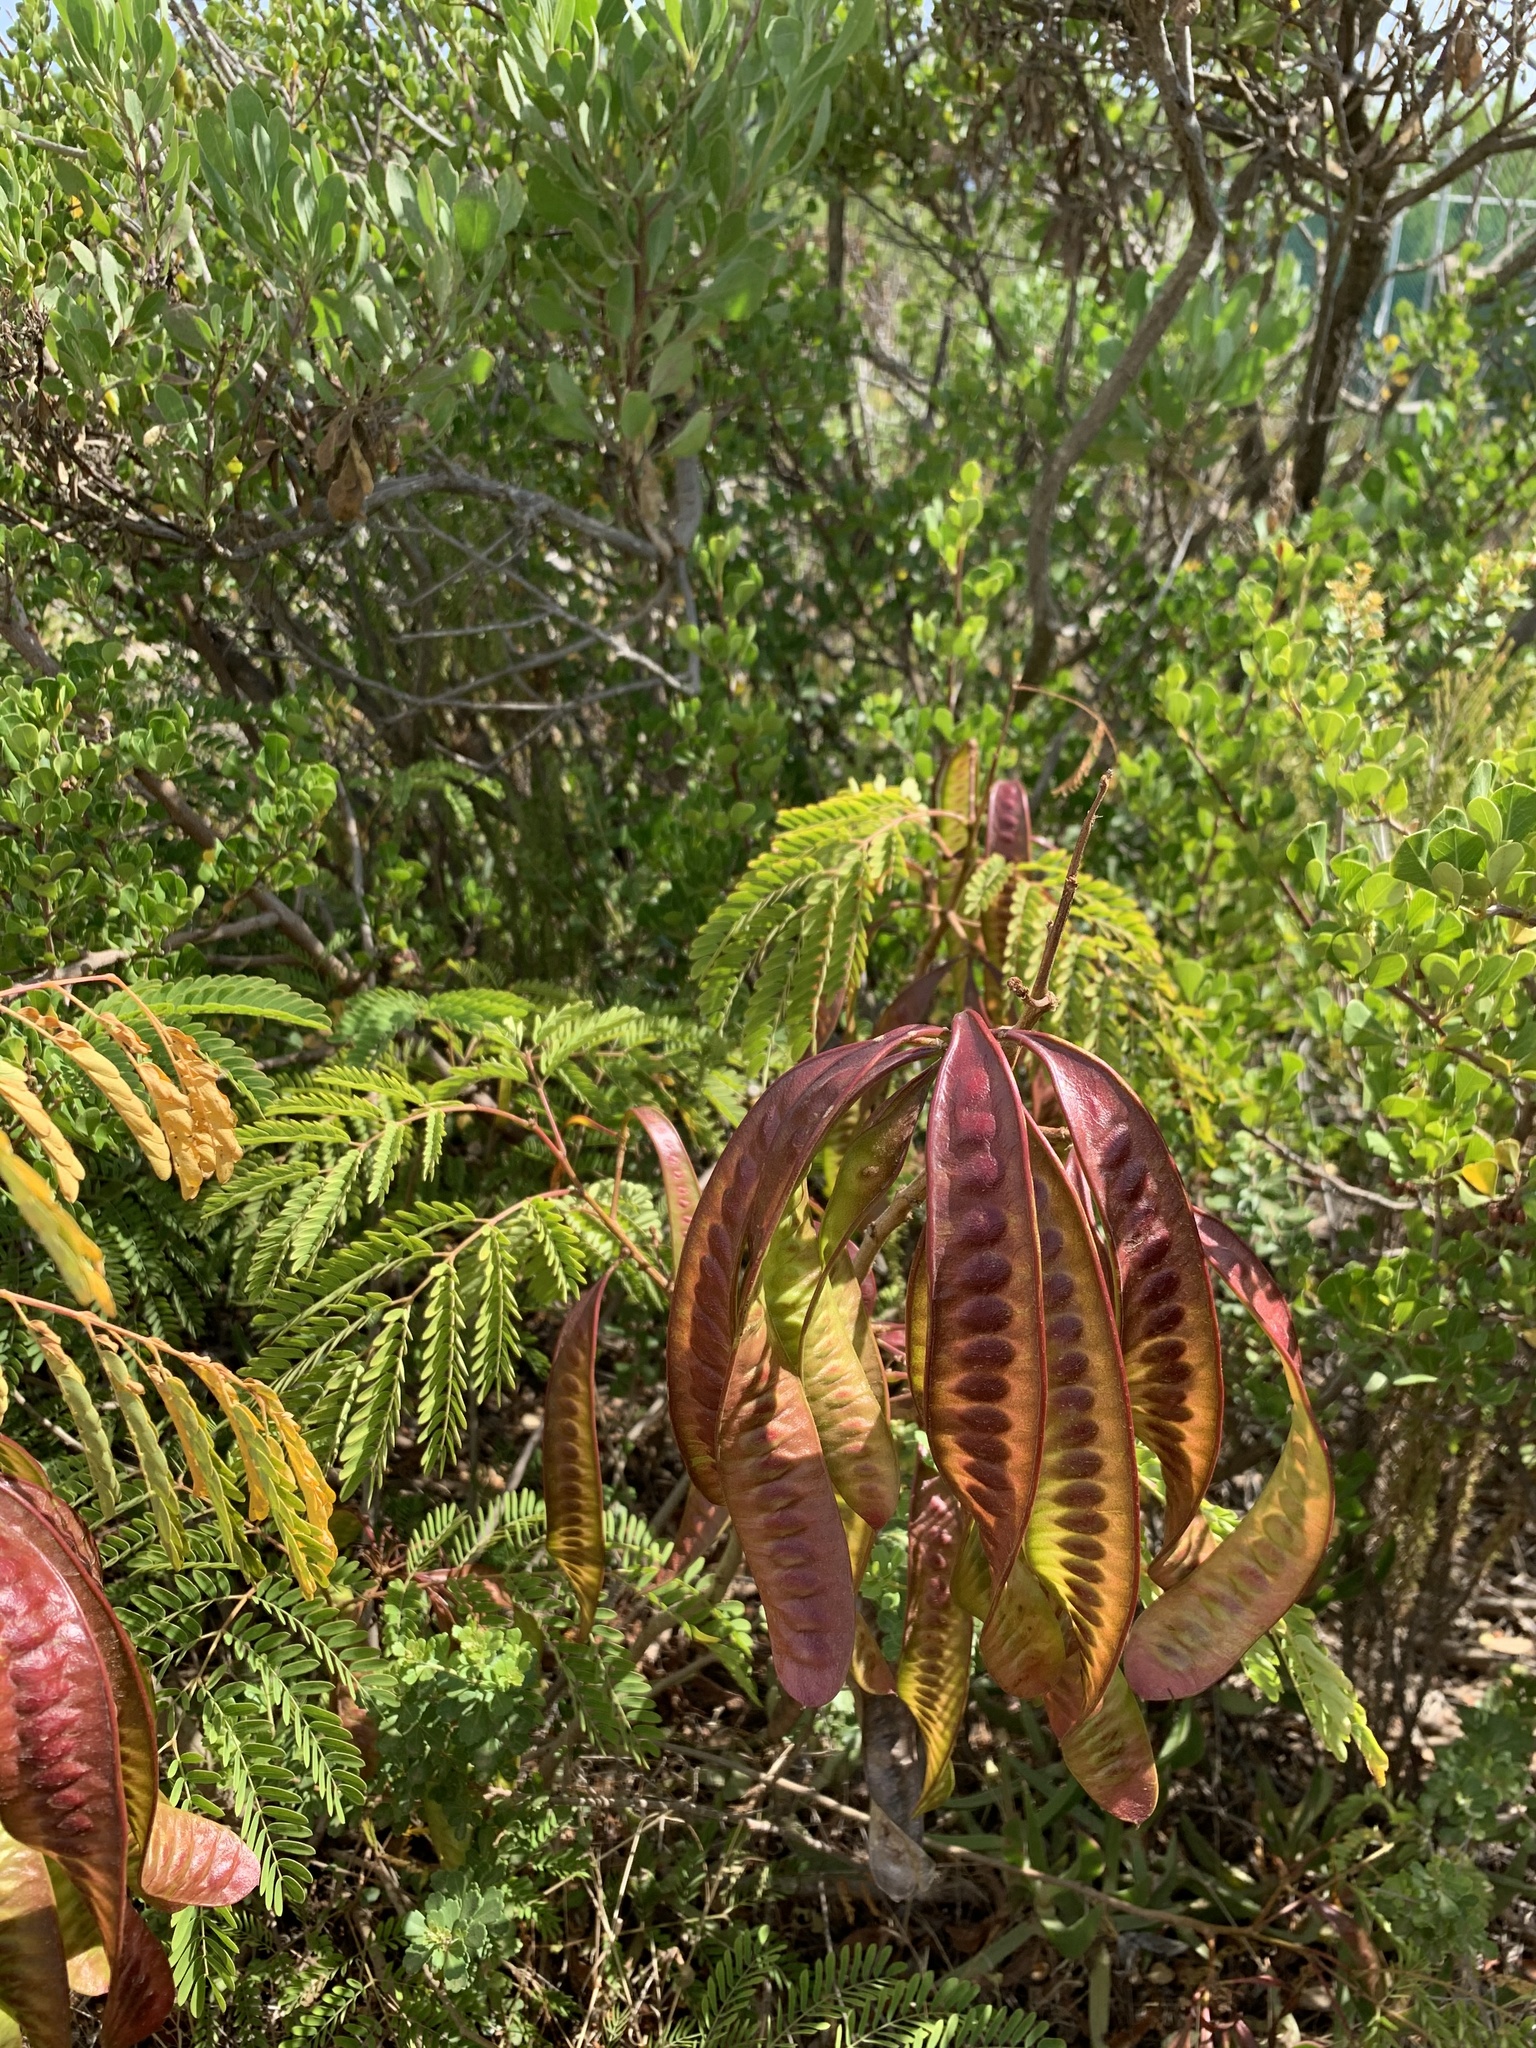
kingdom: Plantae
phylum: Tracheophyta
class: Magnoliopsida
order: Fabales
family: Fabaceae
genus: Leucaena
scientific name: Leucaena leucocephala
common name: White leadtree
